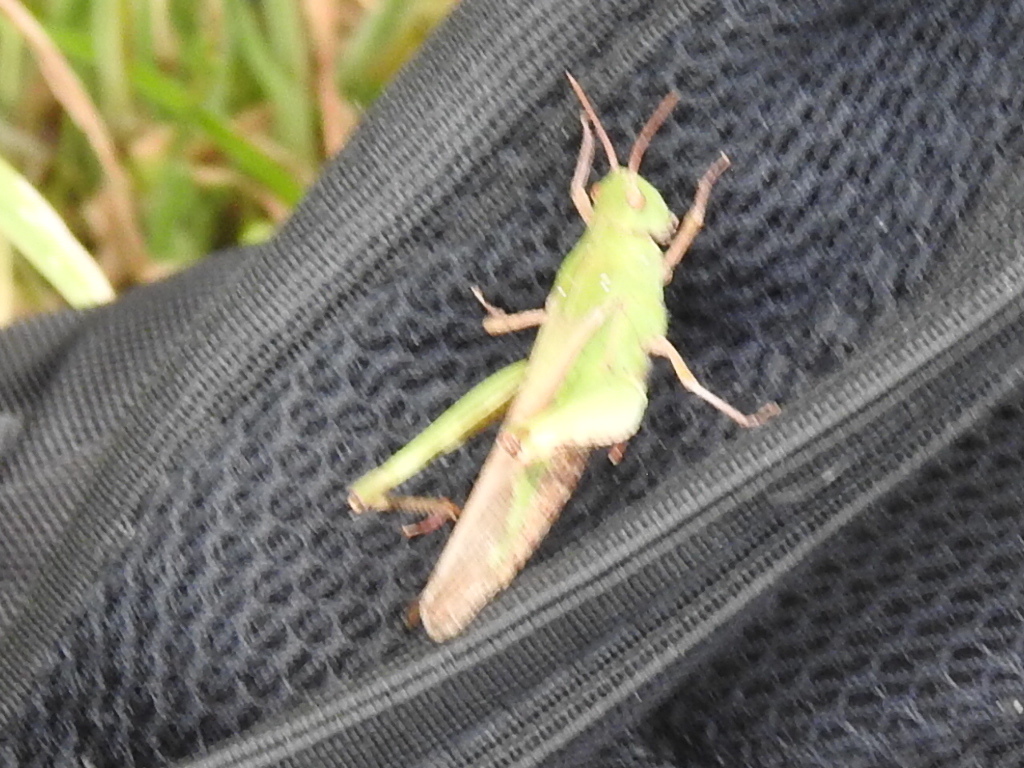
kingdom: Animalia
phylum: Arthropoda
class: Insecta
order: Orthoptera
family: Acrididae
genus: Chortophaga
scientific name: Chortophaga viridifasciata
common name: Green-striped grasshopper
